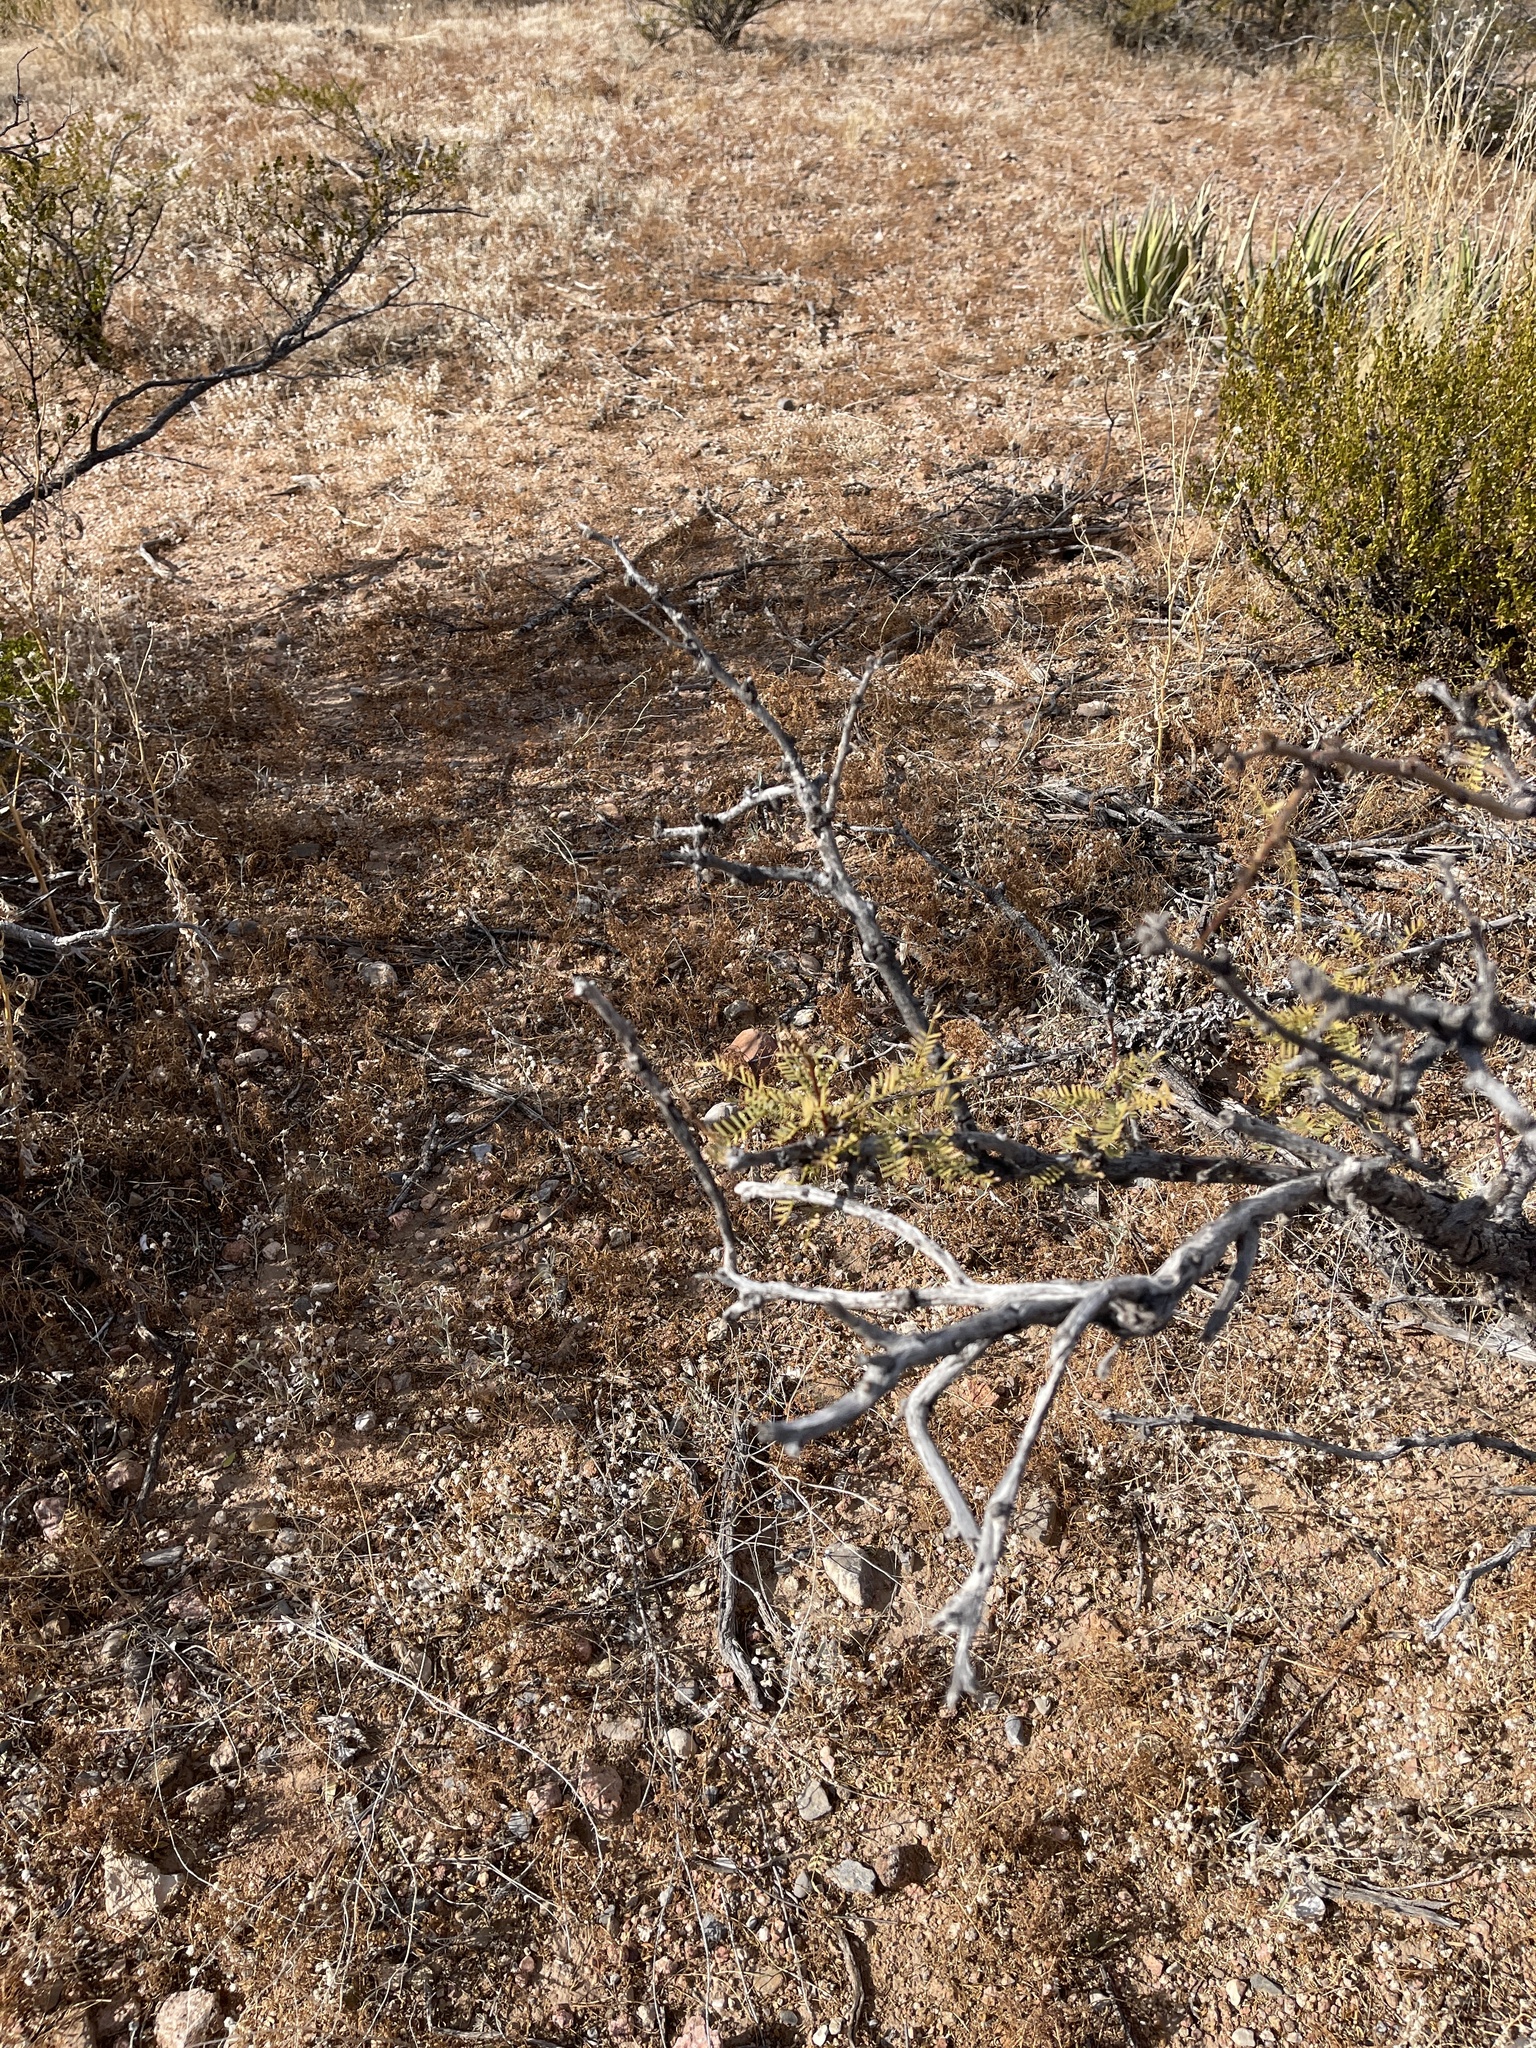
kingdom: Plantae
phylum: Tracheophyta
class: Magnoliopsida
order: Zygophyllales
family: Zygophyllaceae
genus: Larrea
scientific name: Larrea tridentata
